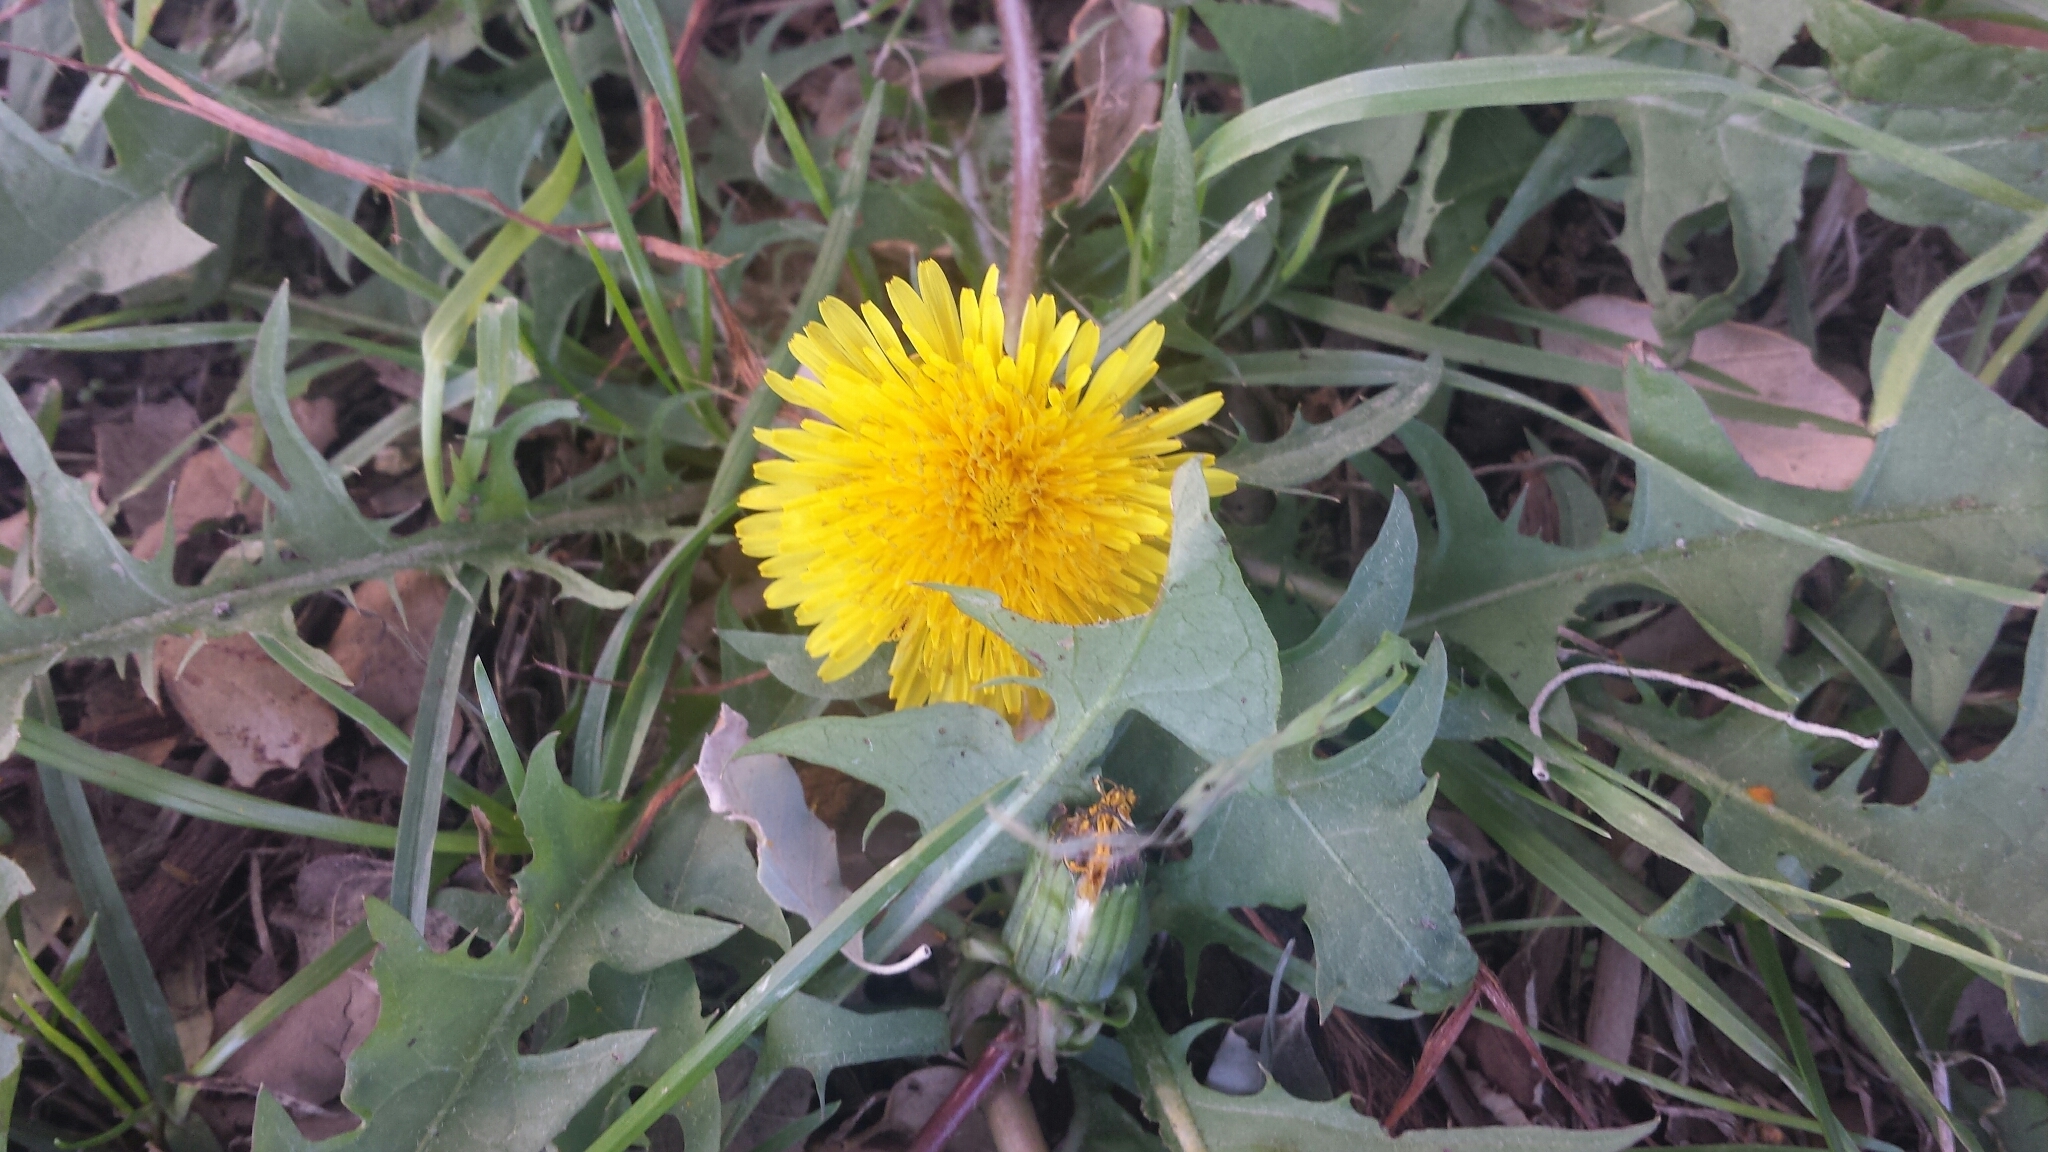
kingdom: Plantae
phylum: Tracheophyta
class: Magnoliopsida
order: Asterales
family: Asteraceae
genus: Taraxacum
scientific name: Taraxacum officinale
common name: Common dandelion
